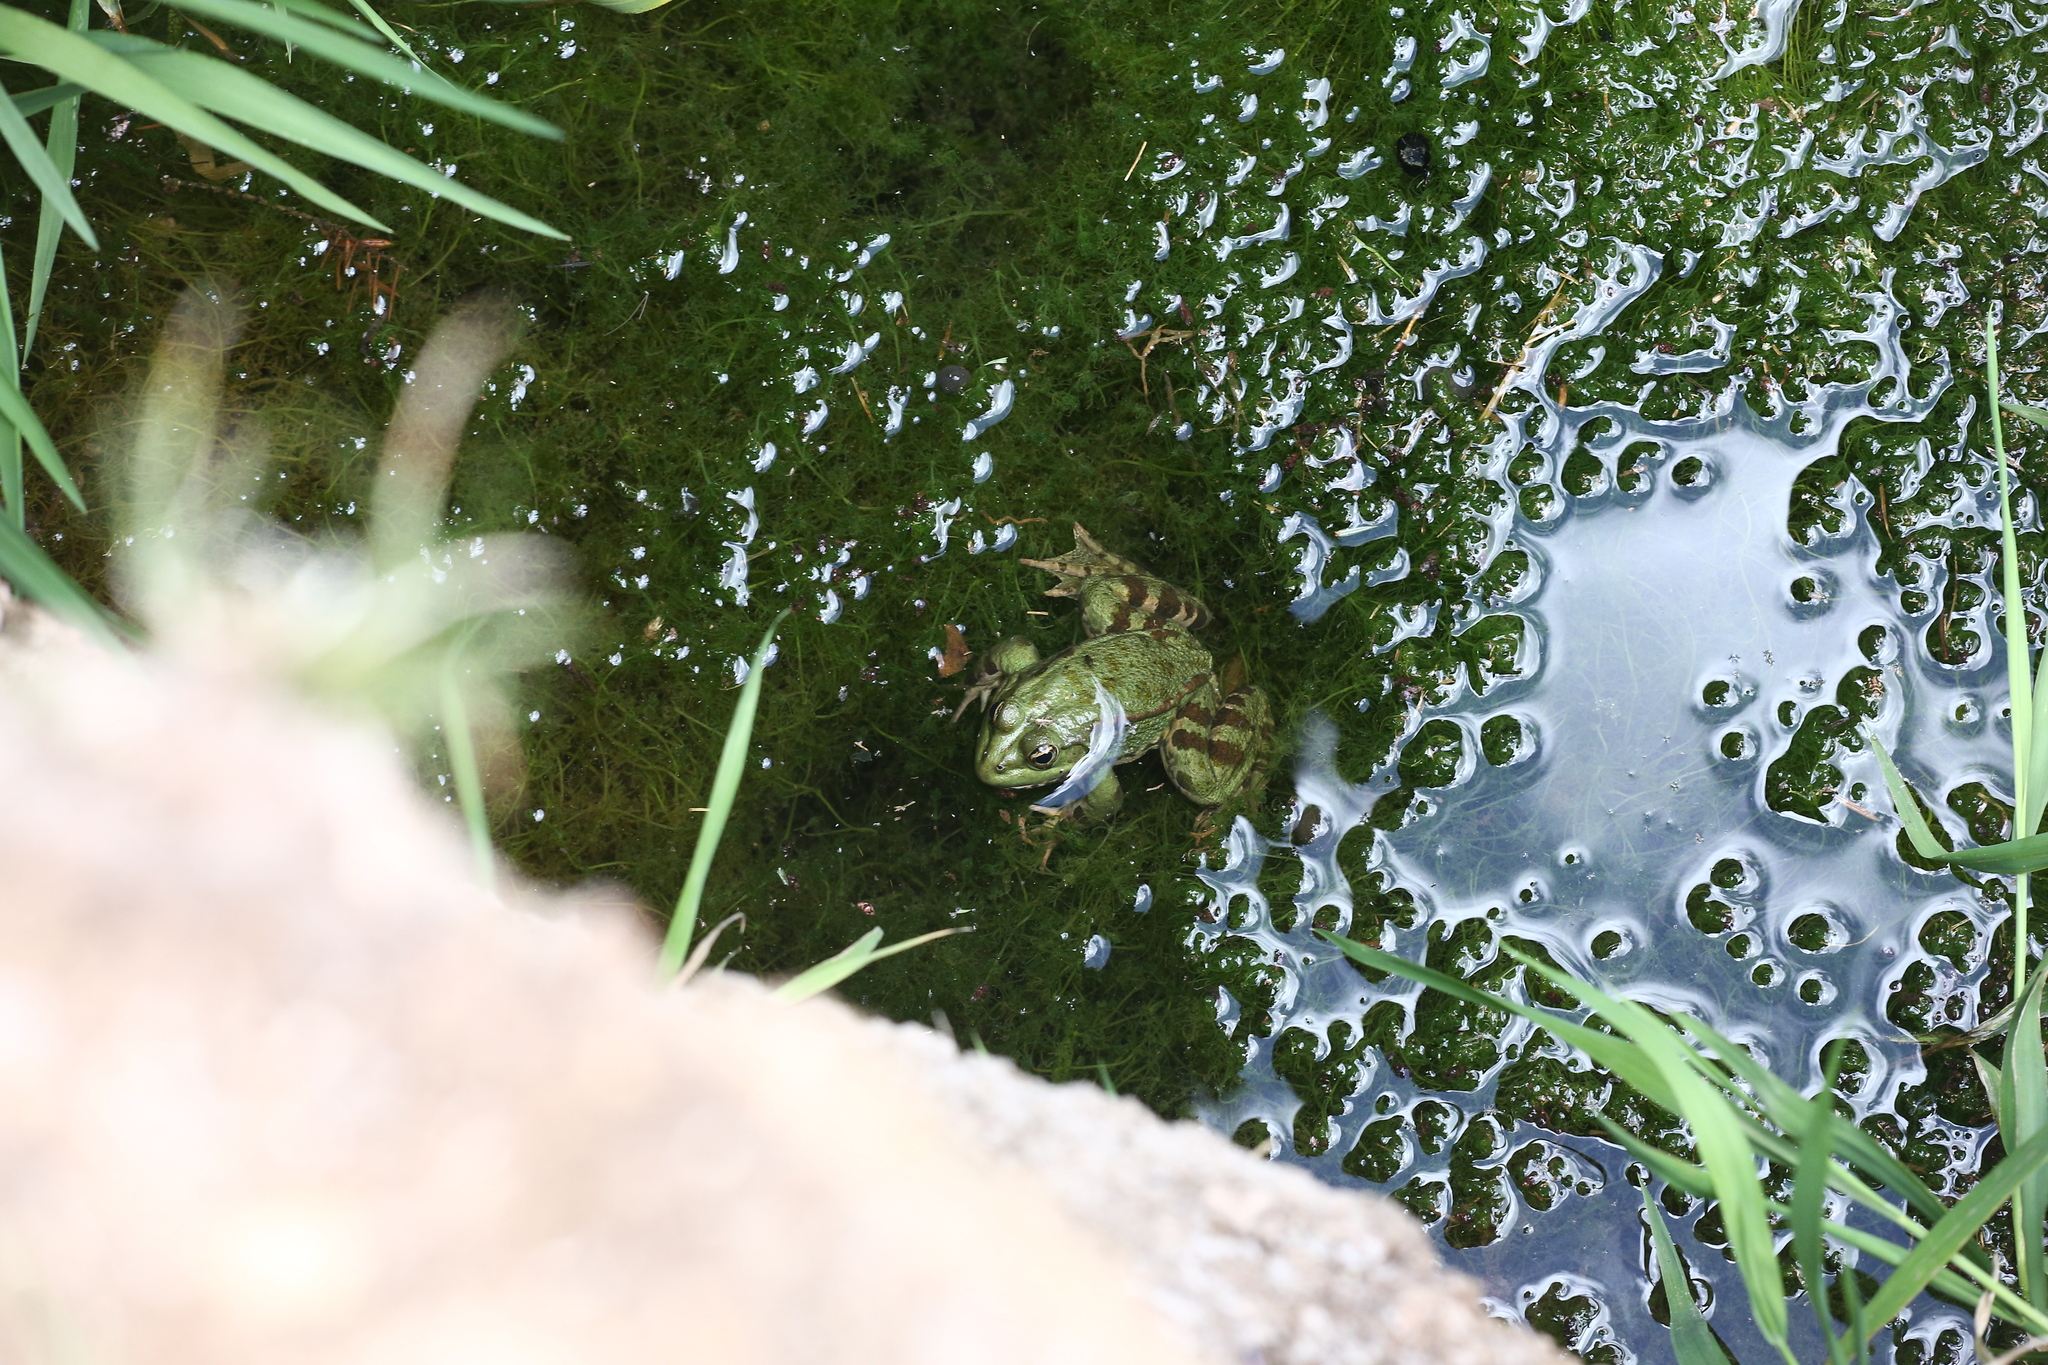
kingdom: Animalia
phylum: Chordata
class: Amphibia
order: Anura
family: Ranidae
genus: Pelophylax
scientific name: Pelophylax saharicus
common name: Sahara frog
